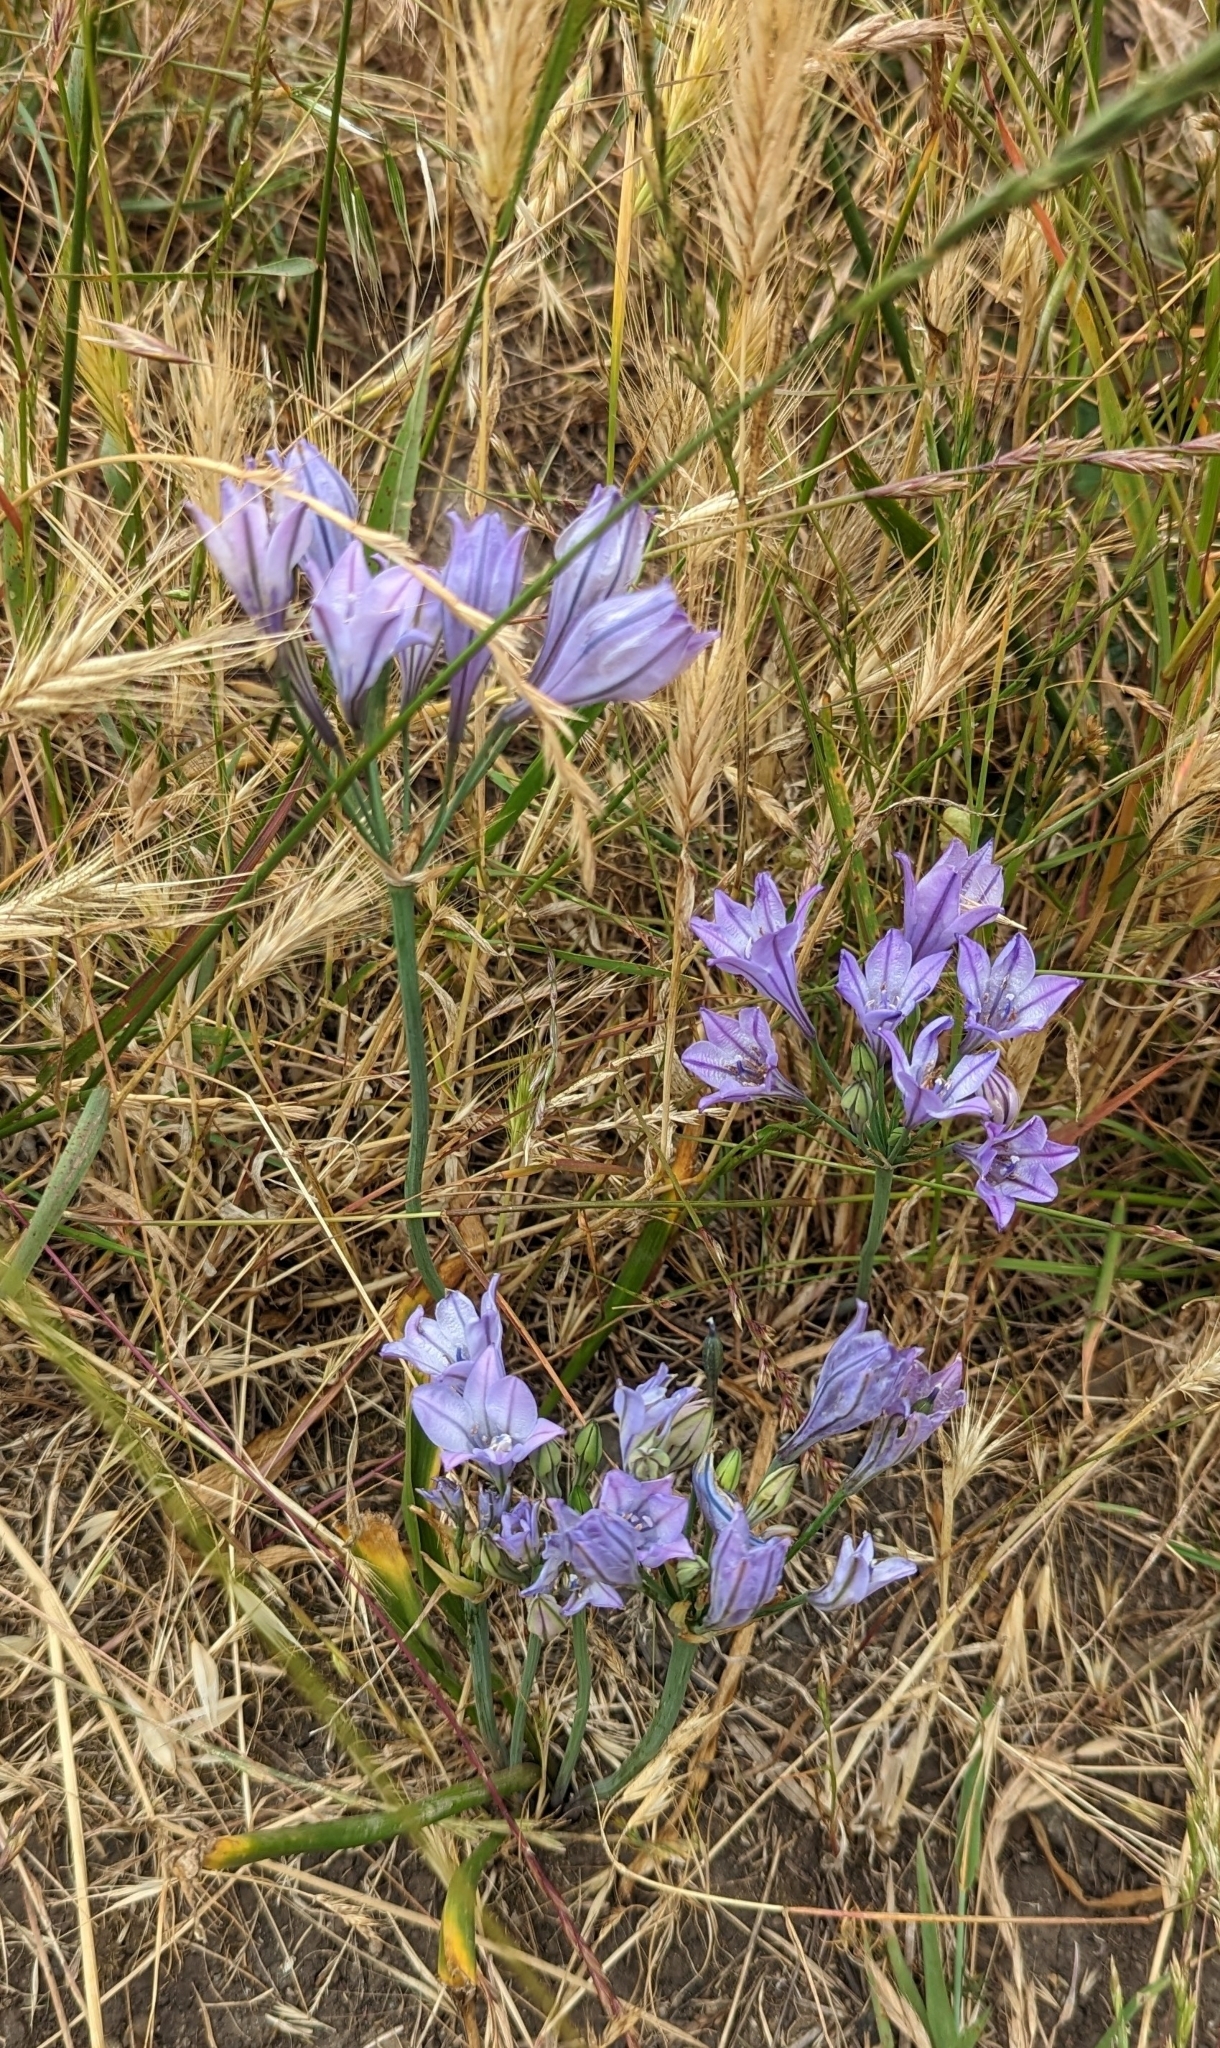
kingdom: Plantae
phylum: Tracheophyta
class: Liliopsida
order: Asparagales
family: Asparagaceae
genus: Triteleia
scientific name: Triteleia laxa
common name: Triplet-lily
